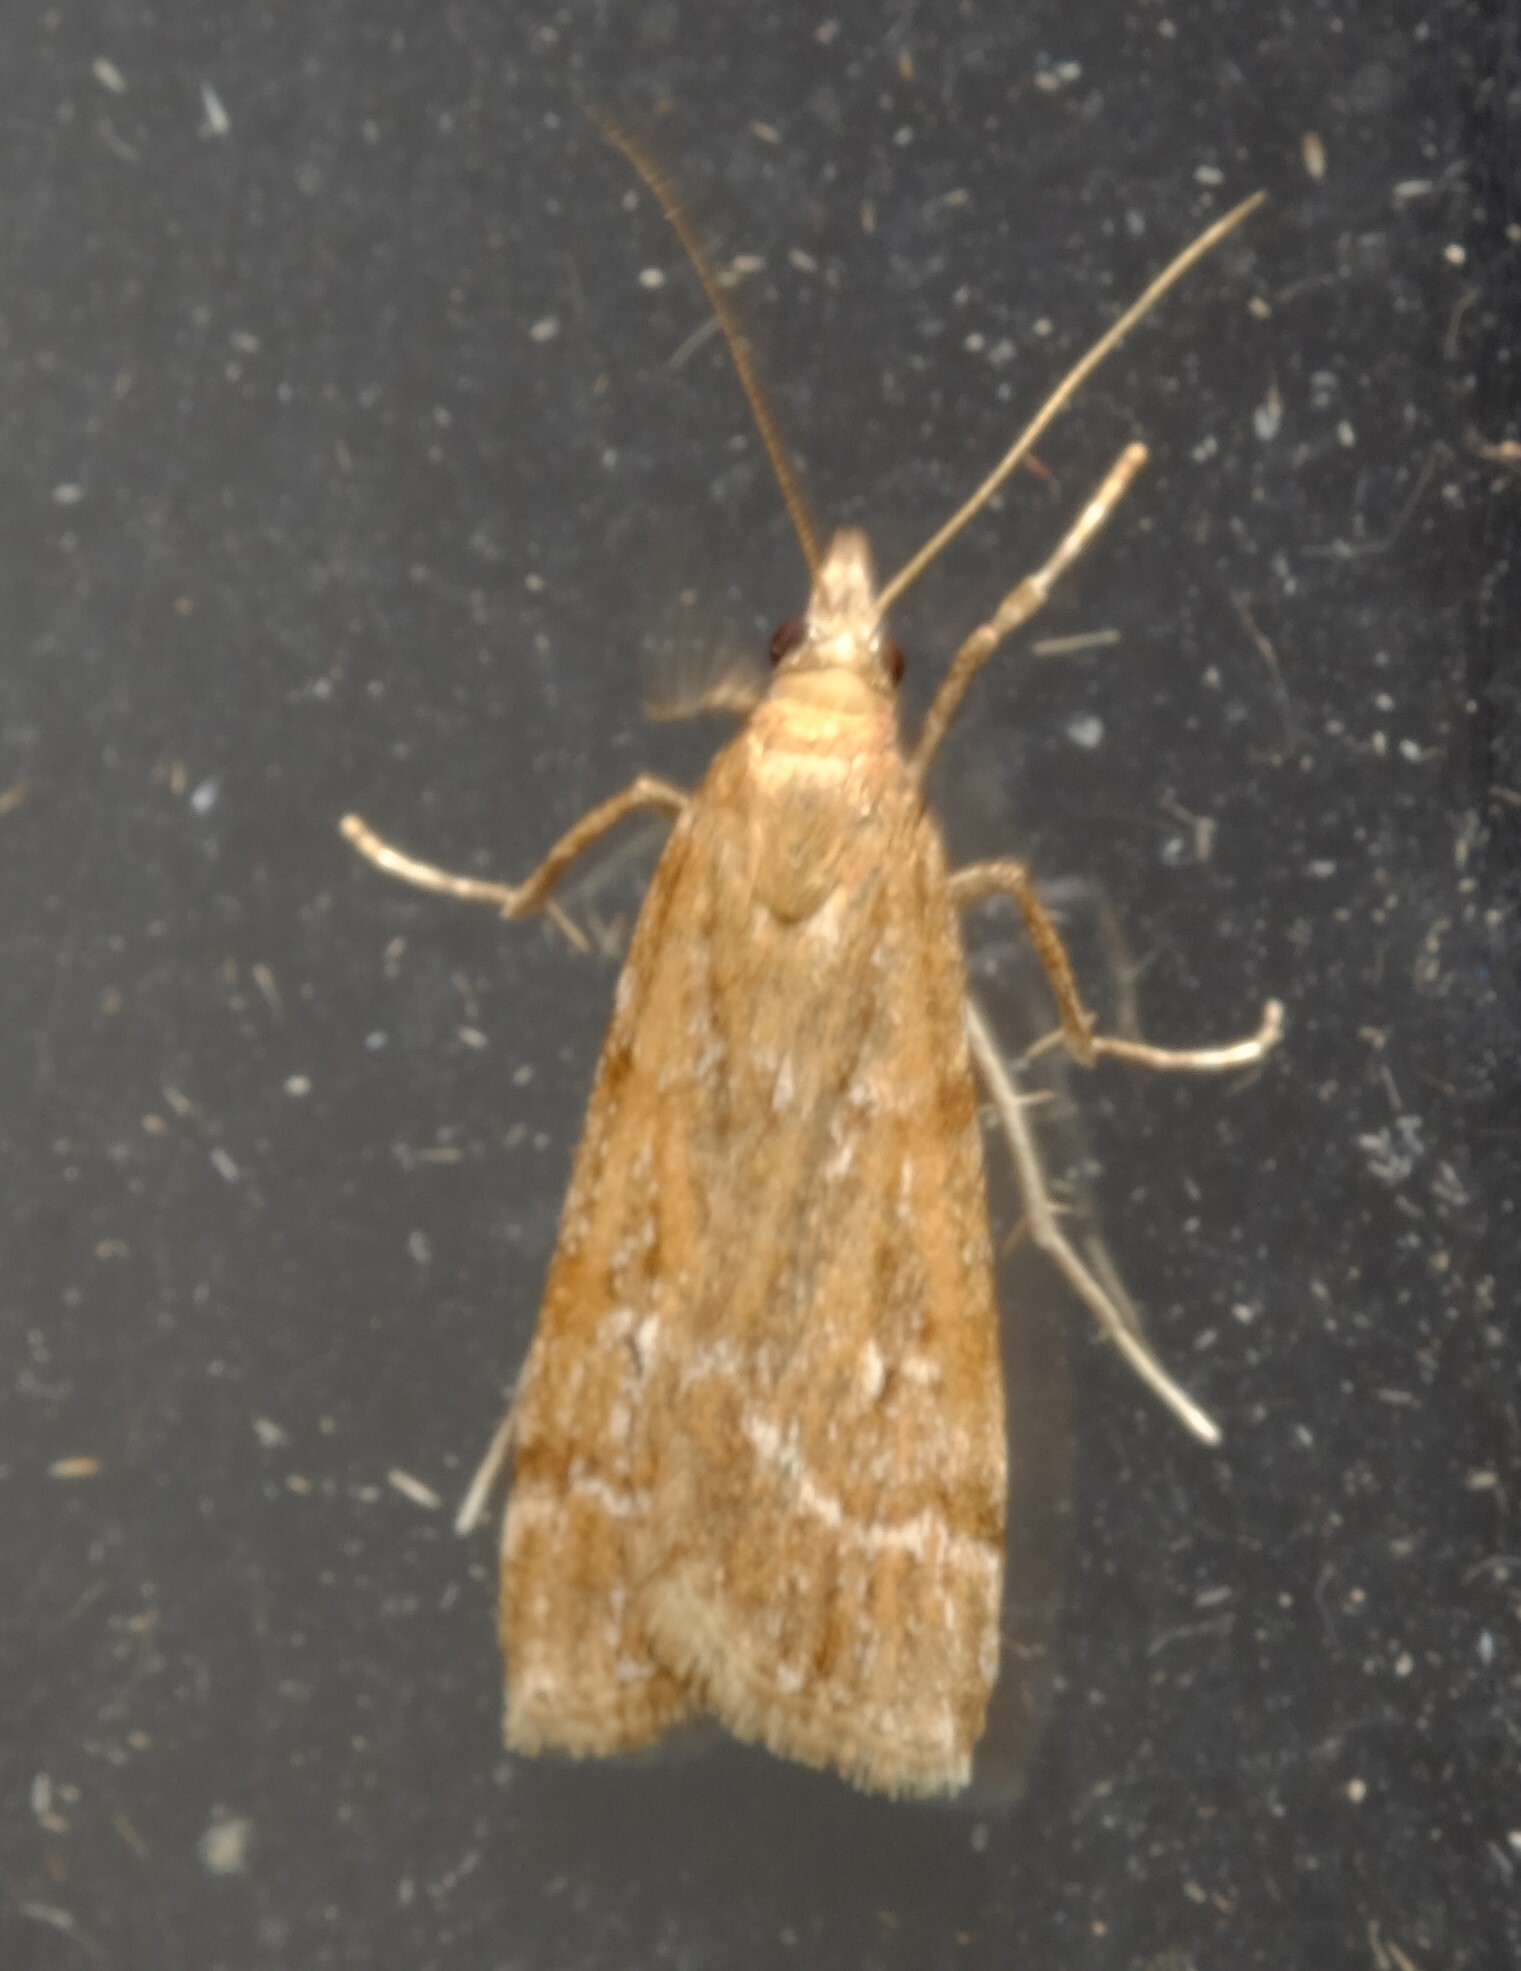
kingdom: Animalia
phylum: Arthropoda
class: Insecta
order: Lepidoptera
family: Crambidae
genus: Eudonia
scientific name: Eudonia cleodoralis
